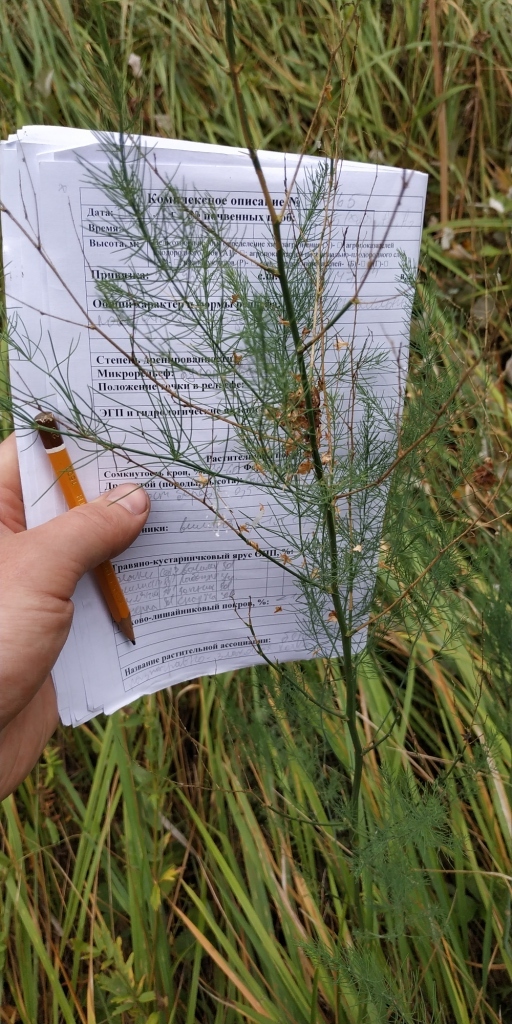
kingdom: Plantae
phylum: Tracheophyta
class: Liliopsida
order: Asparagales
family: Asparagaceae
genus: Asparagus
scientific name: Asparagus officinalis
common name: Garden asparagus
